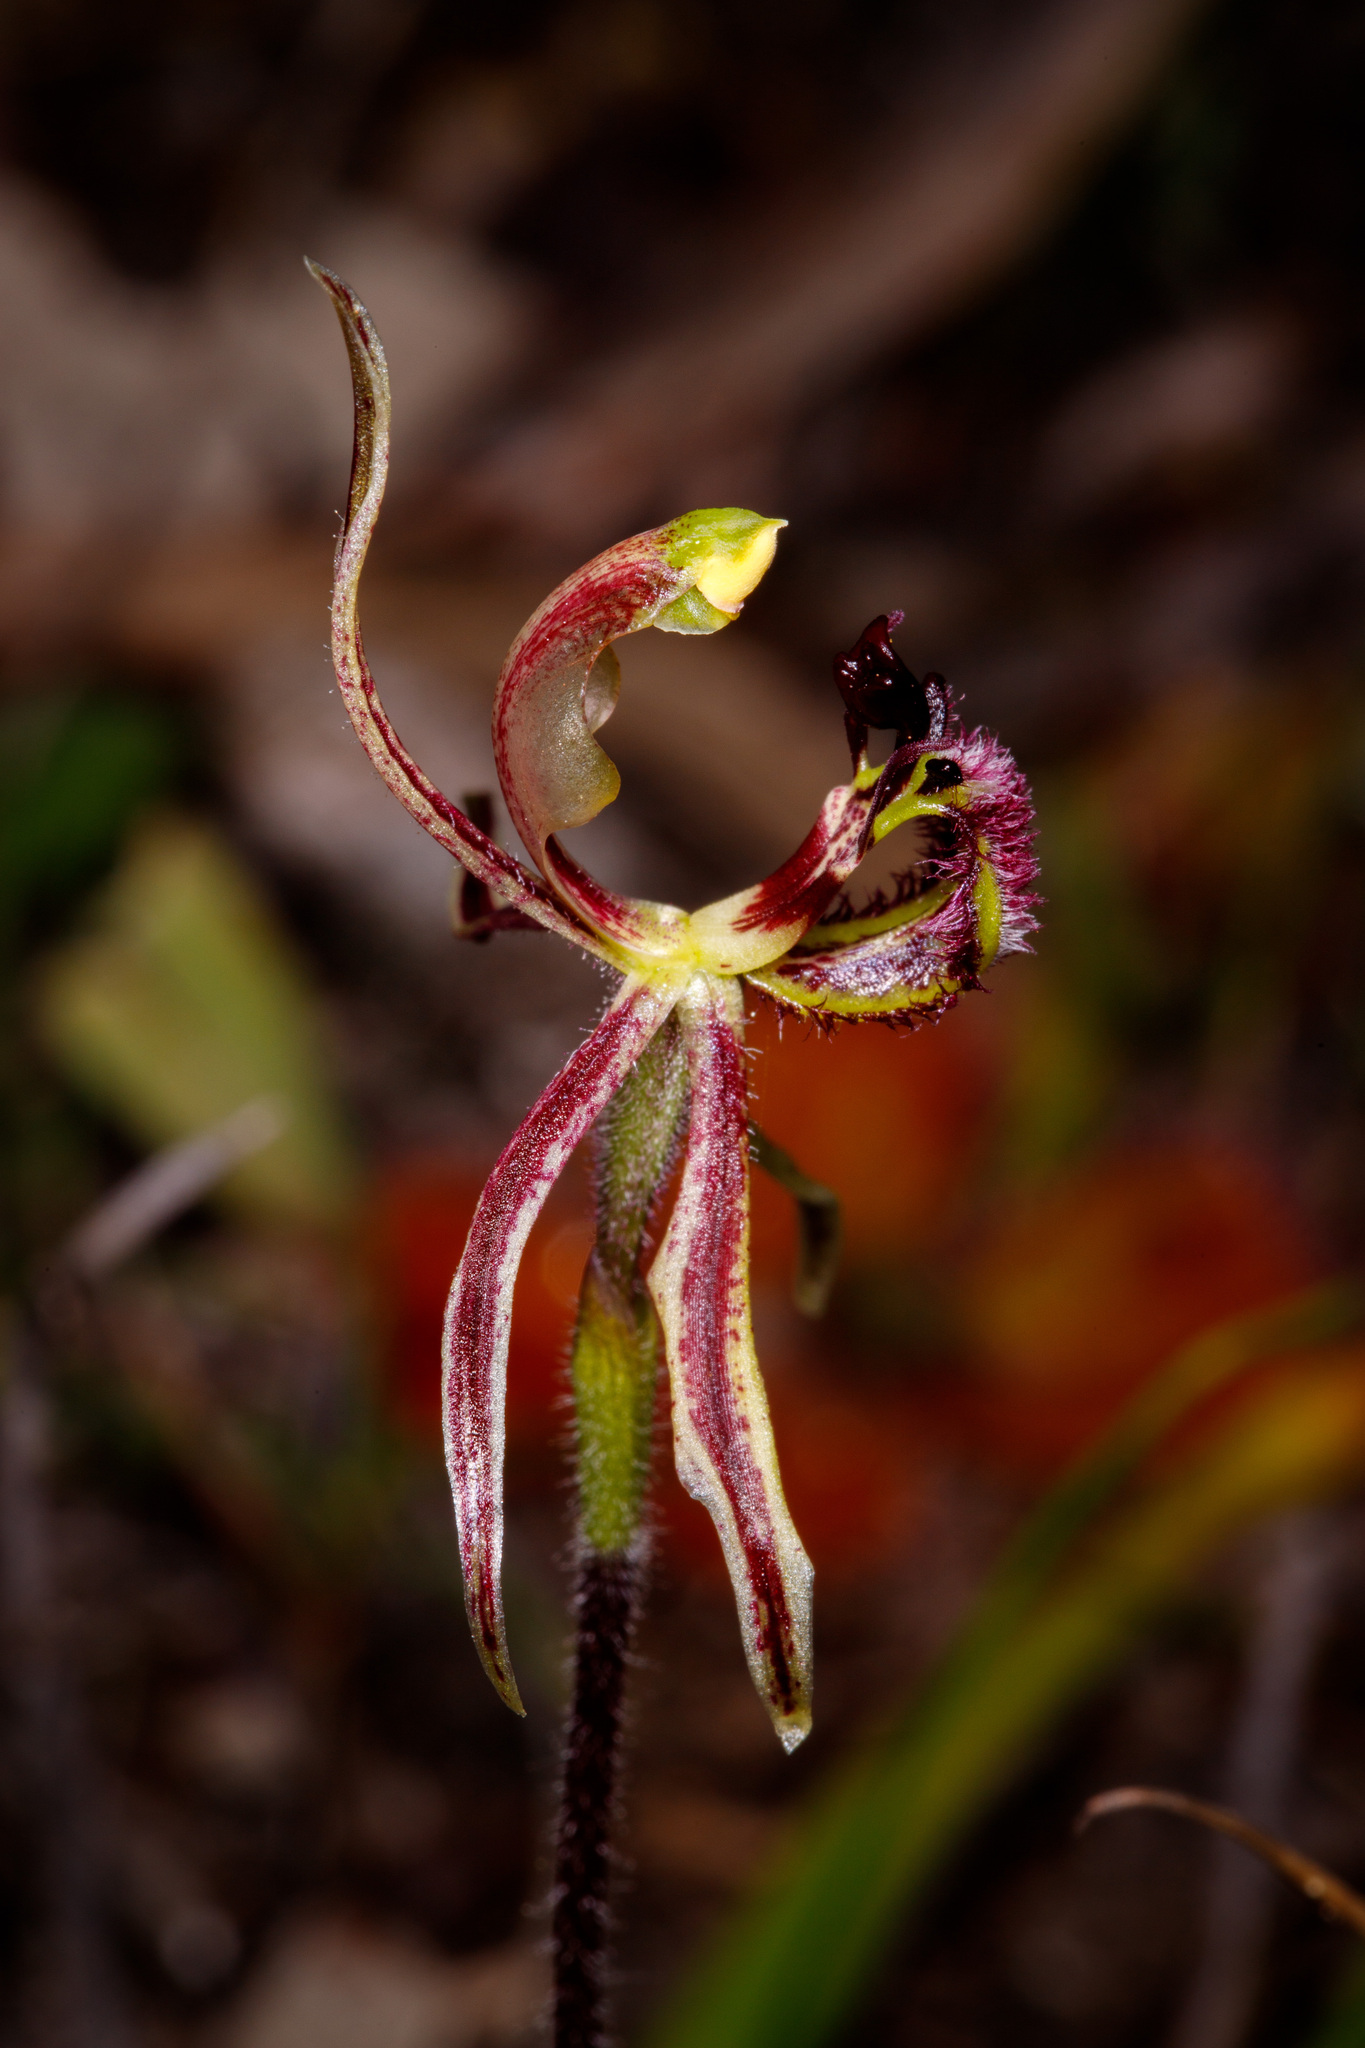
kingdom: Plantae
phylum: Tracheophyta
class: Liliopsida
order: Asparagales
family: Orchidaceae
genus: Caladenia
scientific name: Caladenia barbarossa
